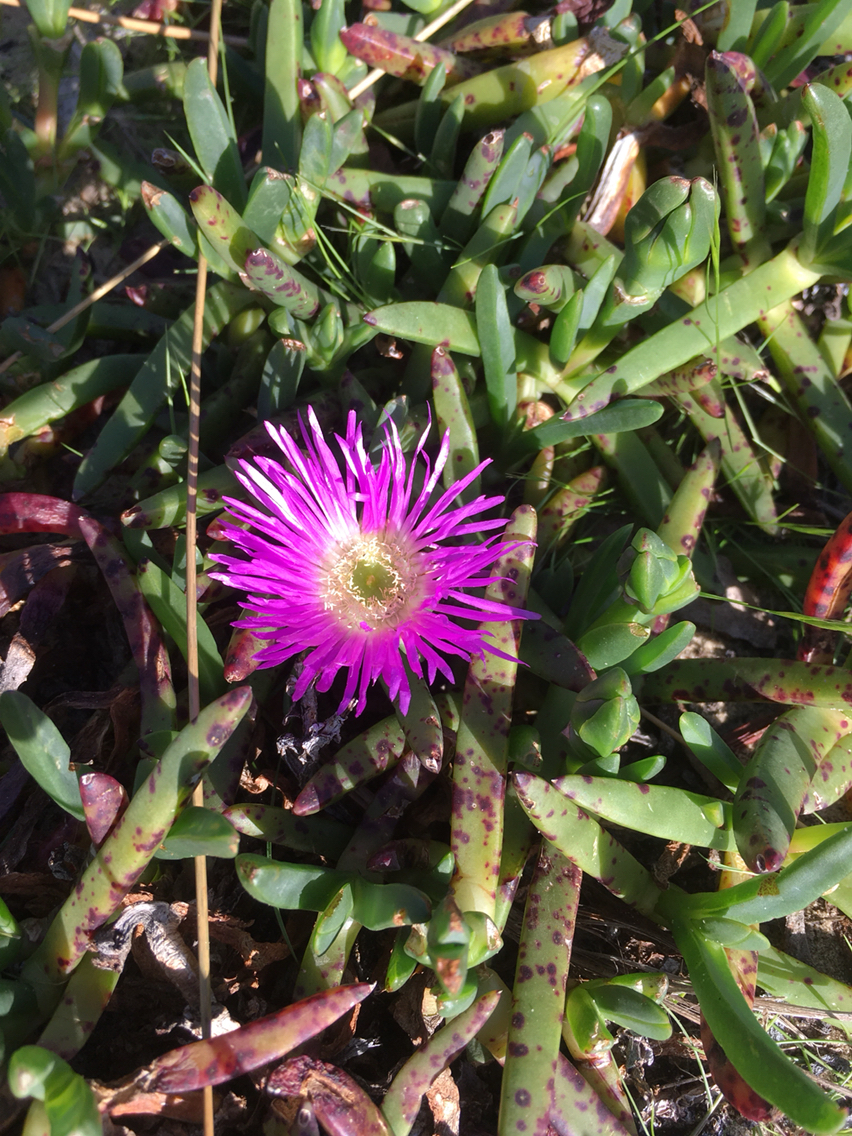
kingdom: Plantae
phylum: Tracheophyta
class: Magnoliopsida
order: Caryophyllales
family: Aizoaceae
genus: Carpobrotus
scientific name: Carpobrotus rossii
